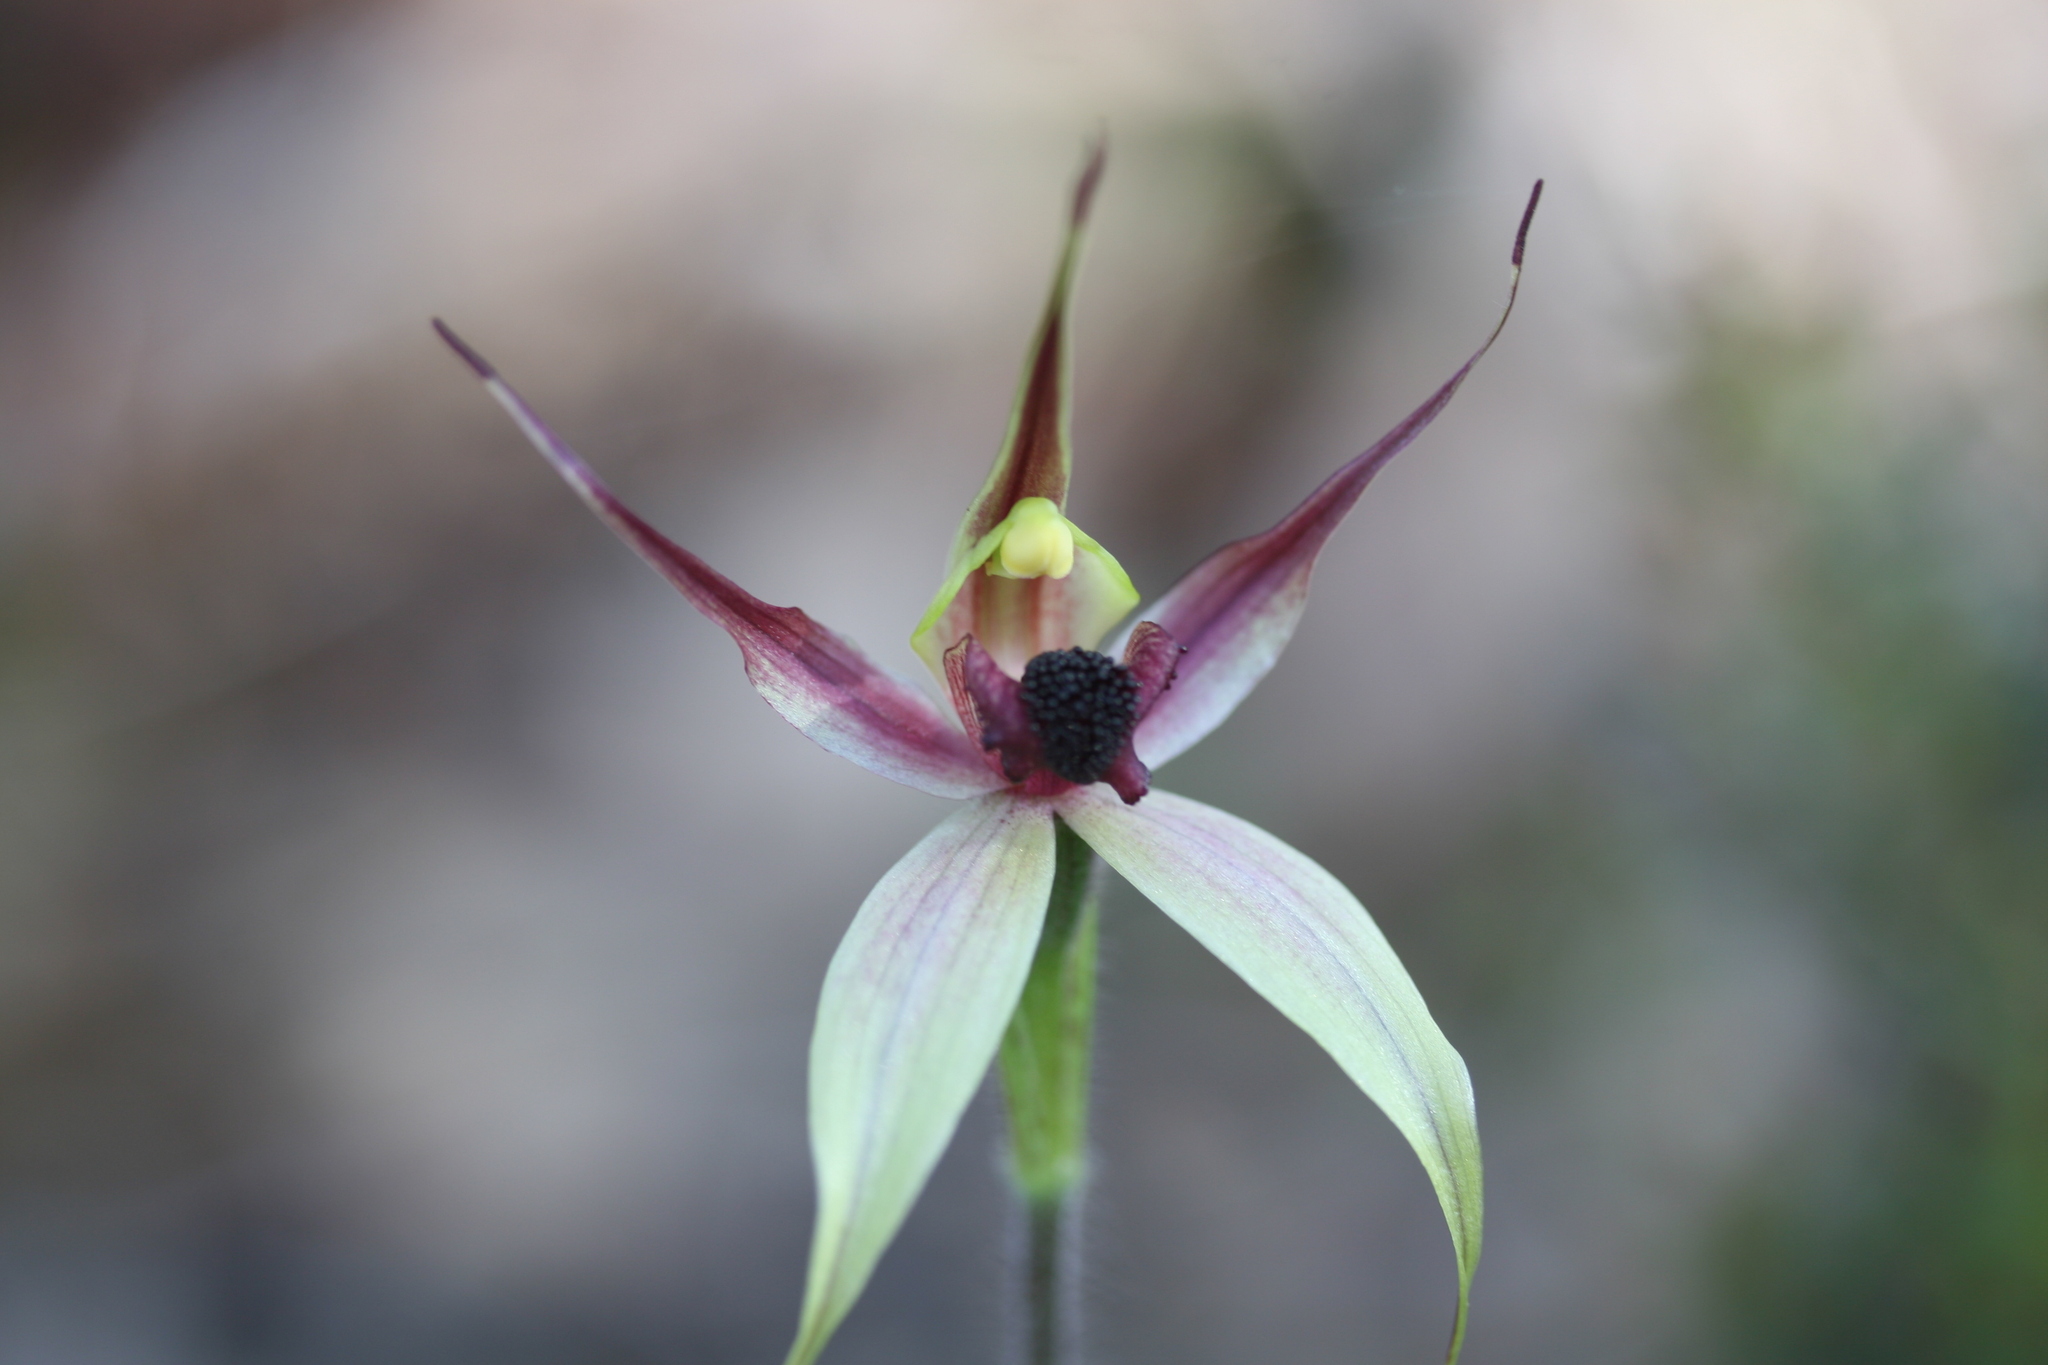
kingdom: Plantae
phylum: Tracheophyta
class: Liliopsida
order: Asparagales
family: Orchidaceae
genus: Caladenia
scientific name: Caladenia macrostylis
